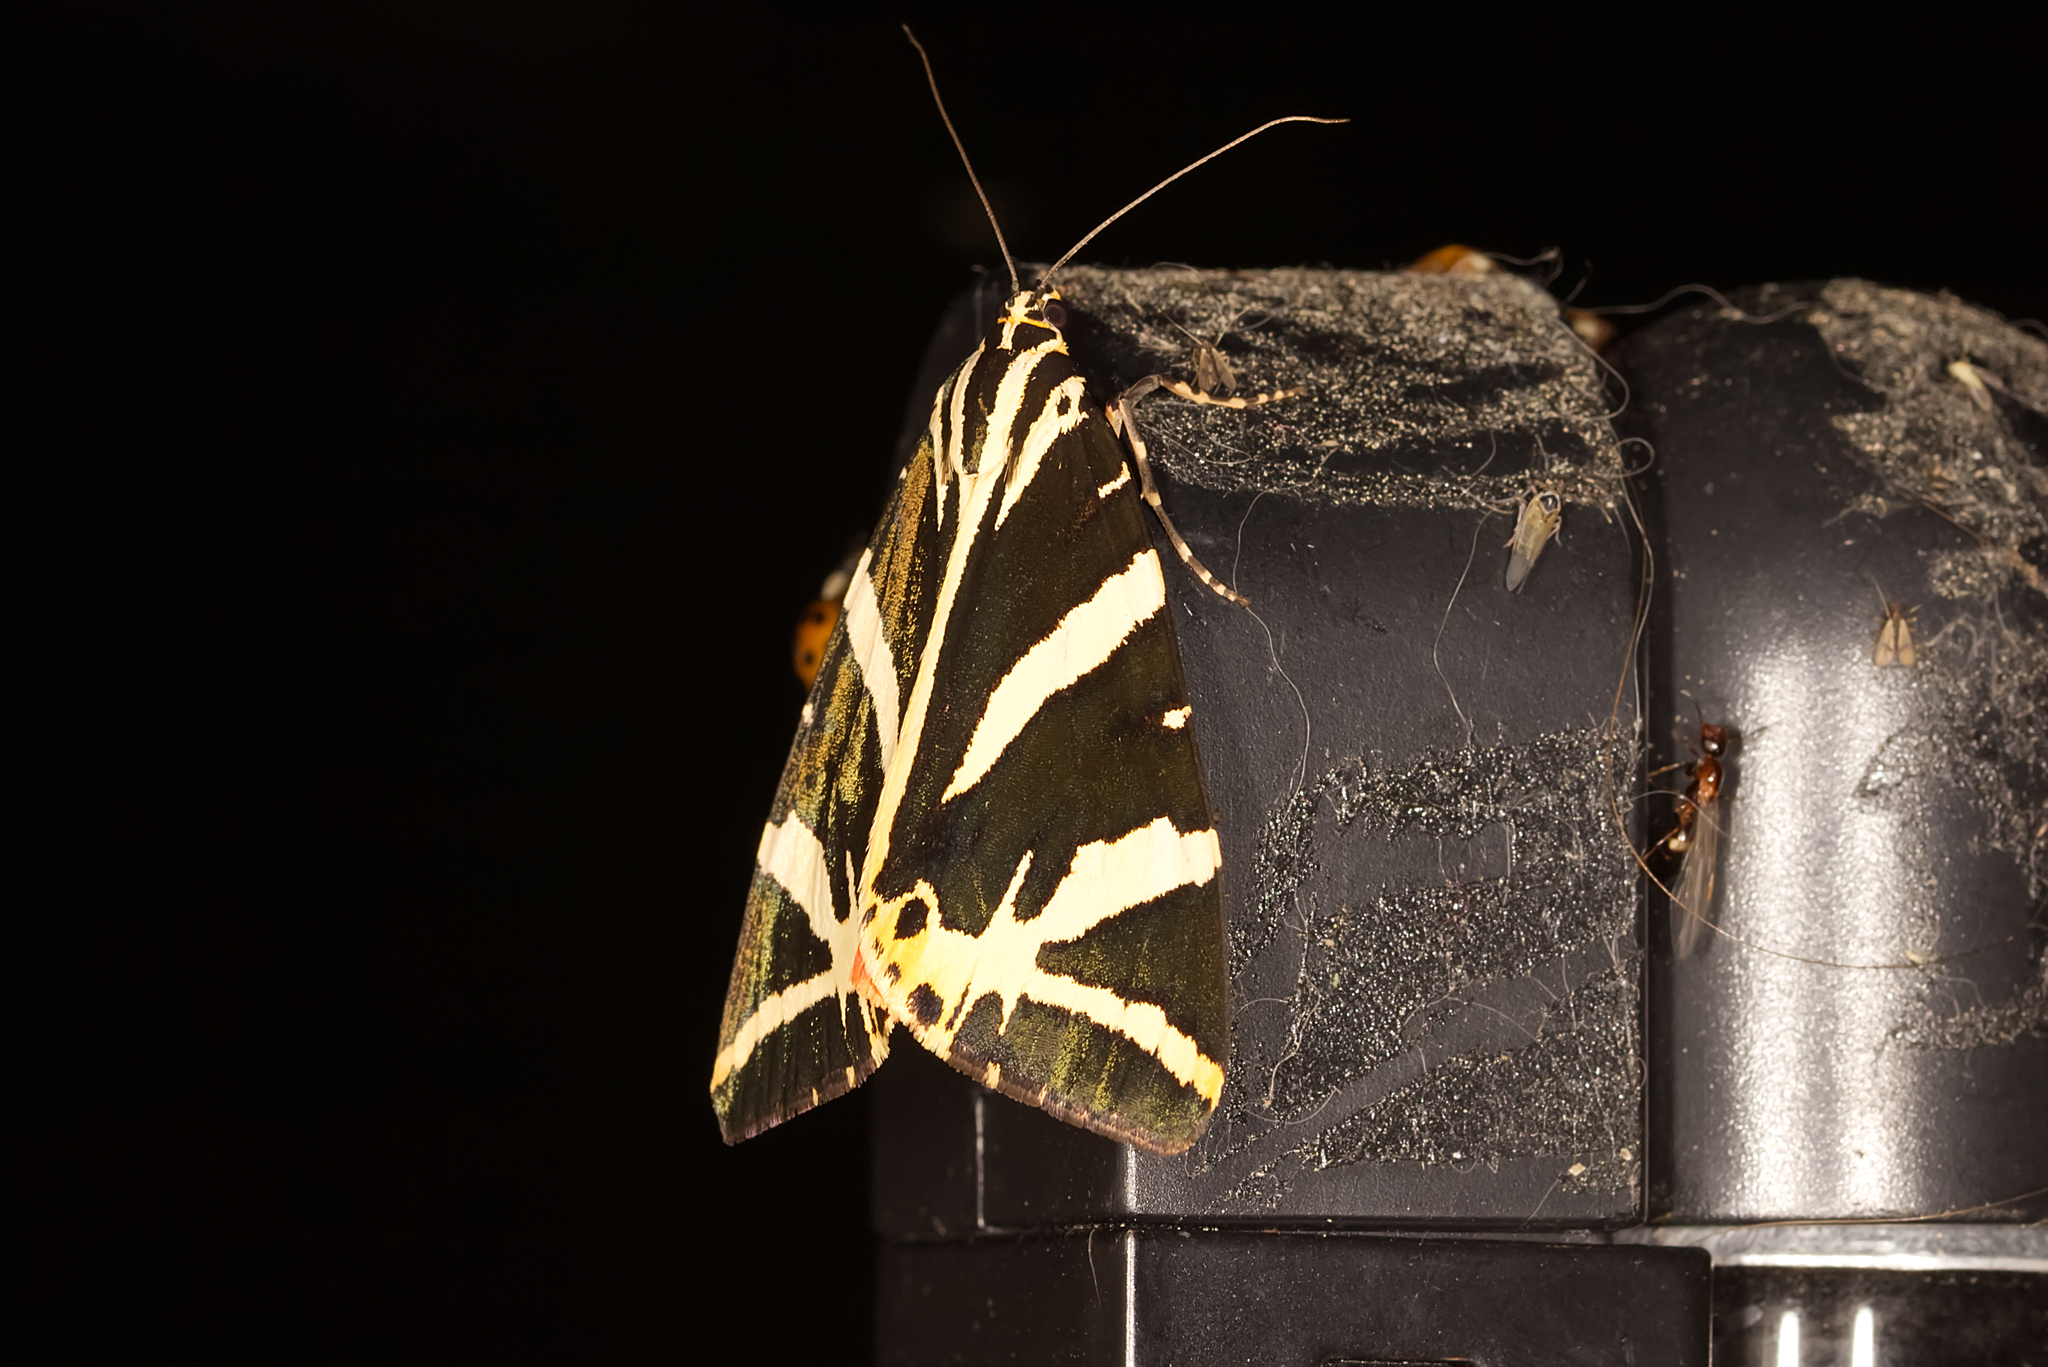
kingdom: Animalia
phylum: Arthropoda
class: Insecta
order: Lepidoptera
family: Erebidae
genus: Euplagia
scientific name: Euplagia quadripunctaria
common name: Jersey tiger
